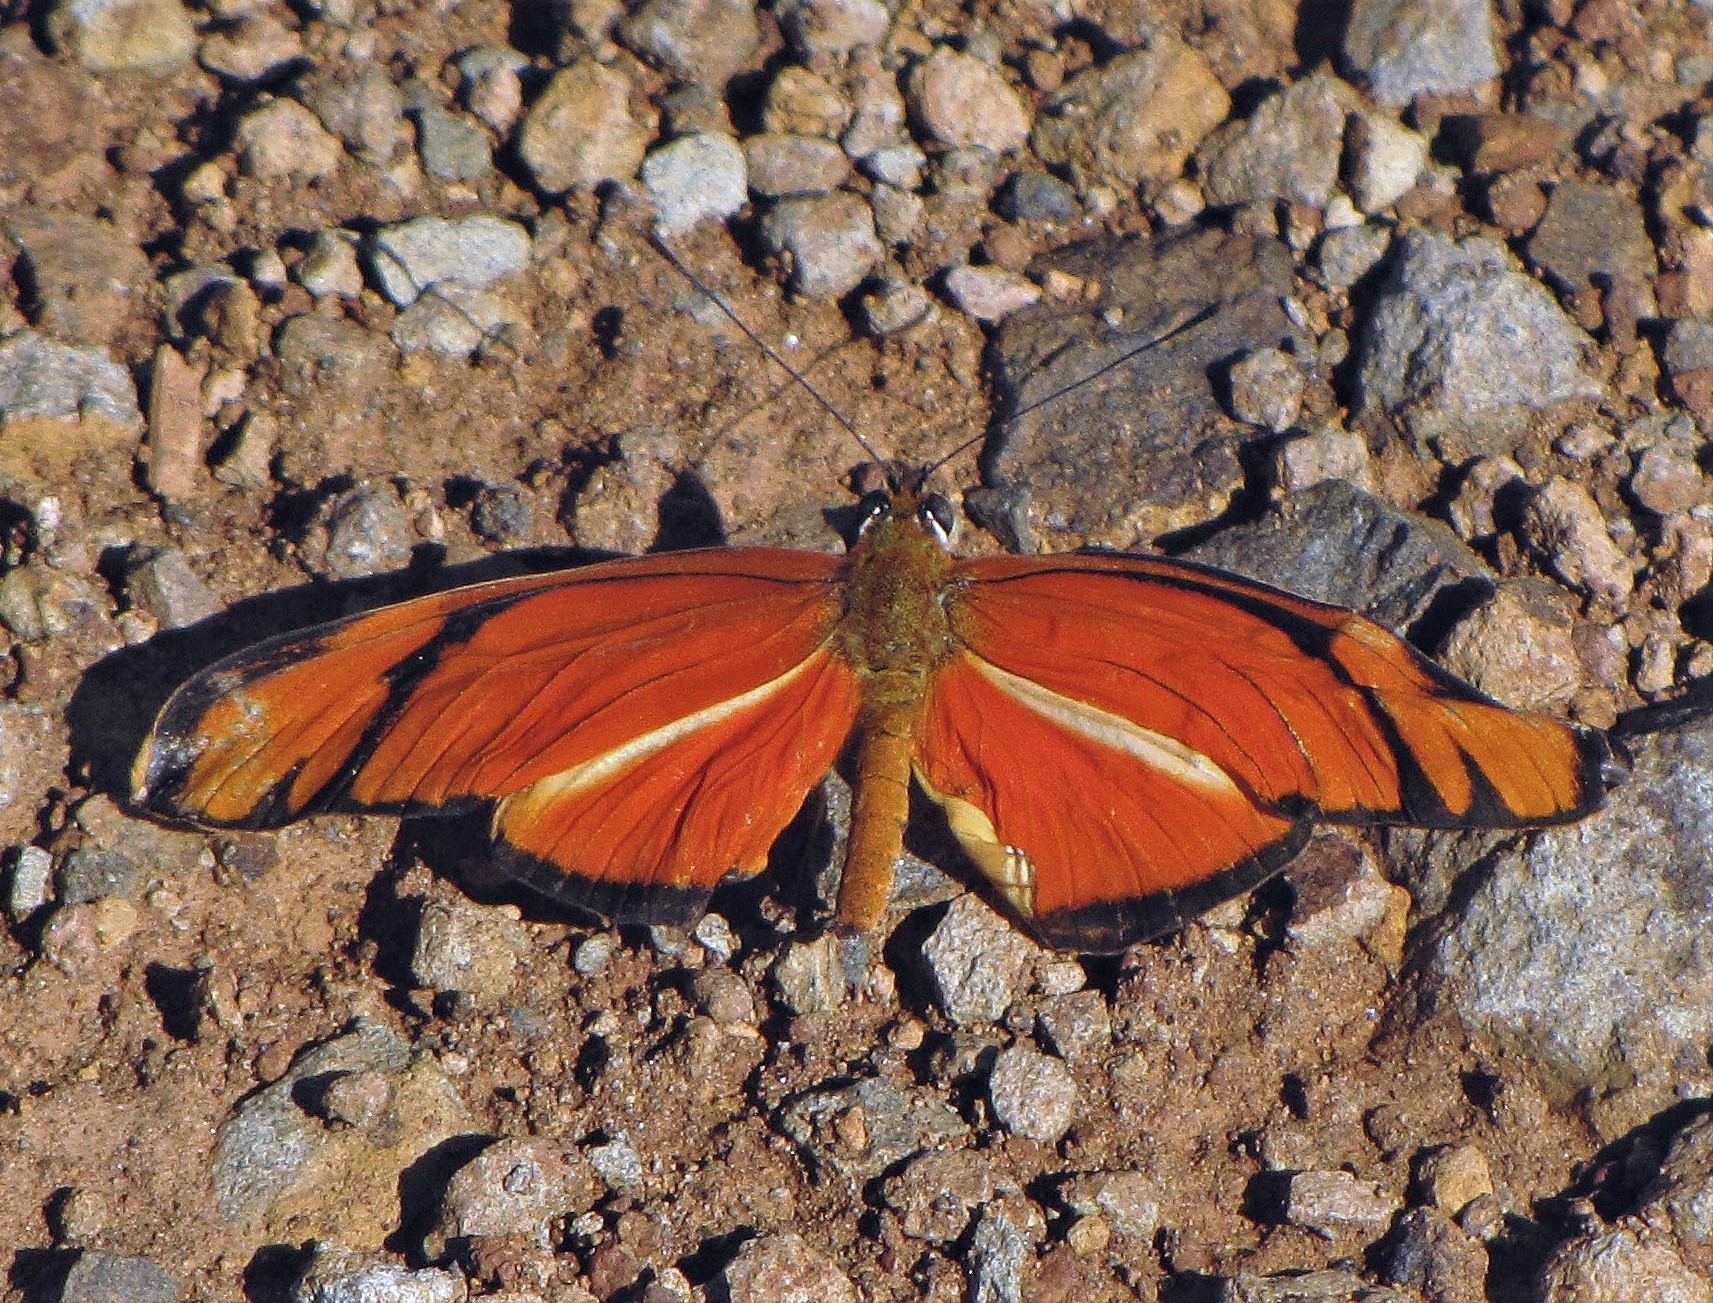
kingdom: Animalia
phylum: Arthropoda
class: Insecta
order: Lepidoptera
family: Nymphalidae
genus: Dryas
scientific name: Dryas iulia
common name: Flambeau
